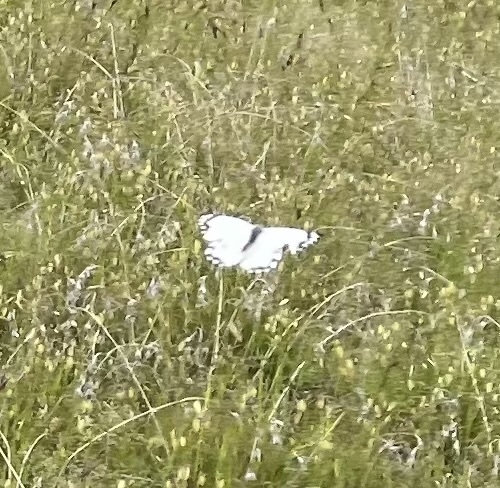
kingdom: Animalia
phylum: Arthropoda
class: Insecta
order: Lepidoptera
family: Pieridae
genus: Belenois
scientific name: Belenois java
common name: Caper white
